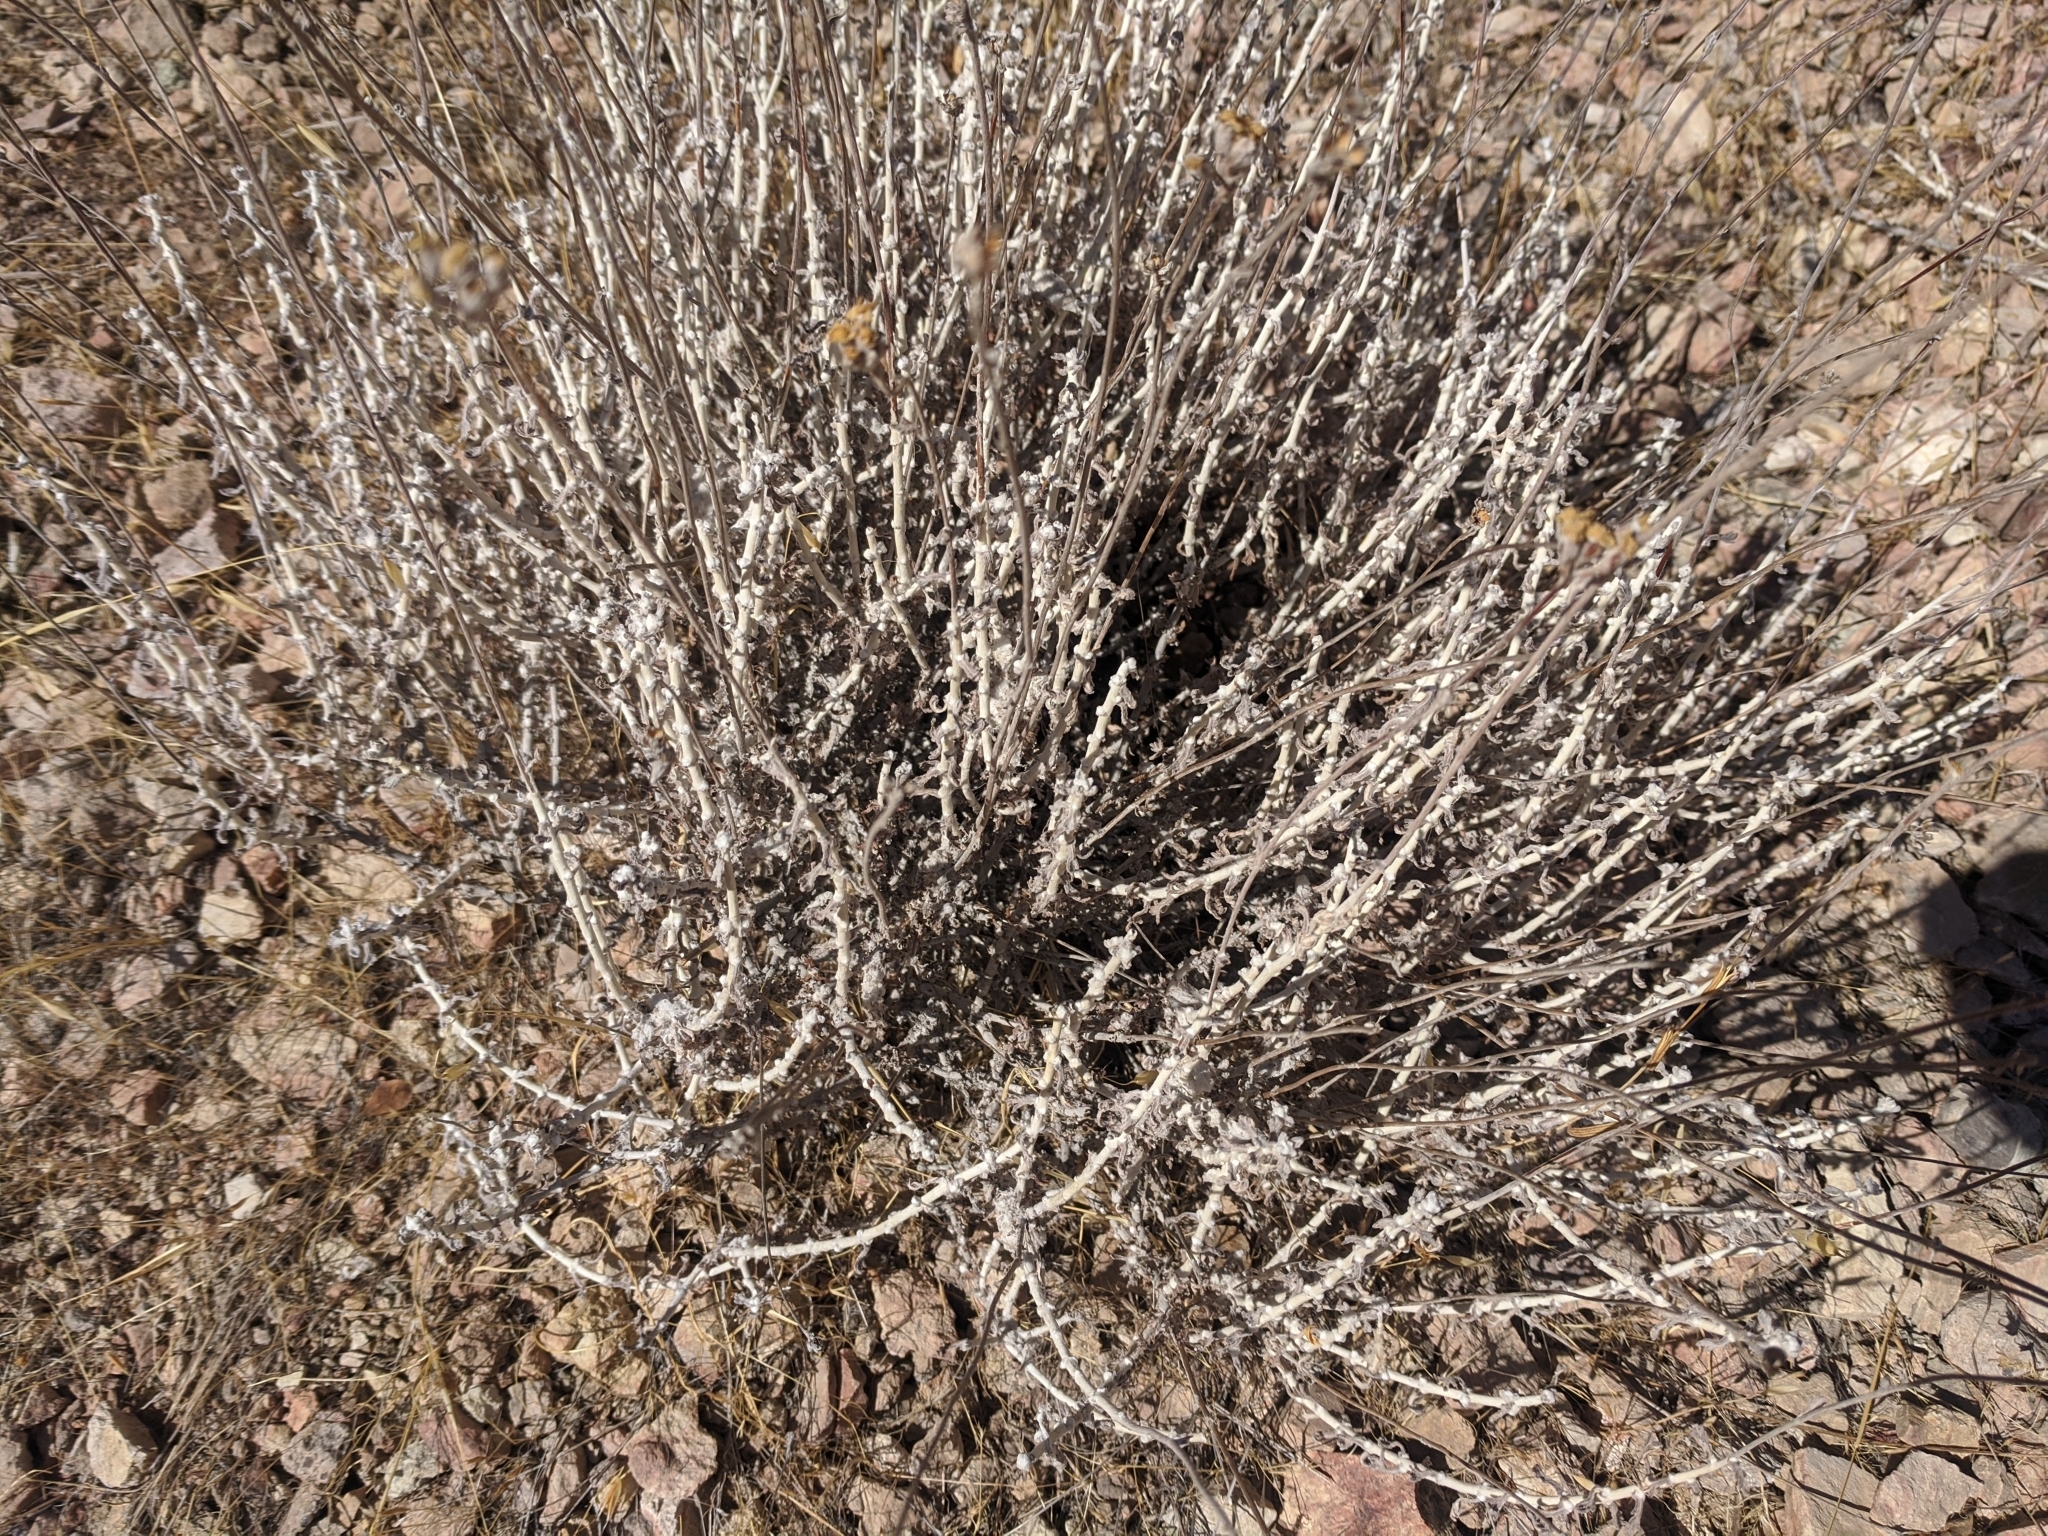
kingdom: Plantae
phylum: Tracheophyta
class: Magnoliopsida
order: Asterales
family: Asteraceae
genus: Eriophyllum
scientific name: Eriophyllum confertiflorum
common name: Golden-yarrow
